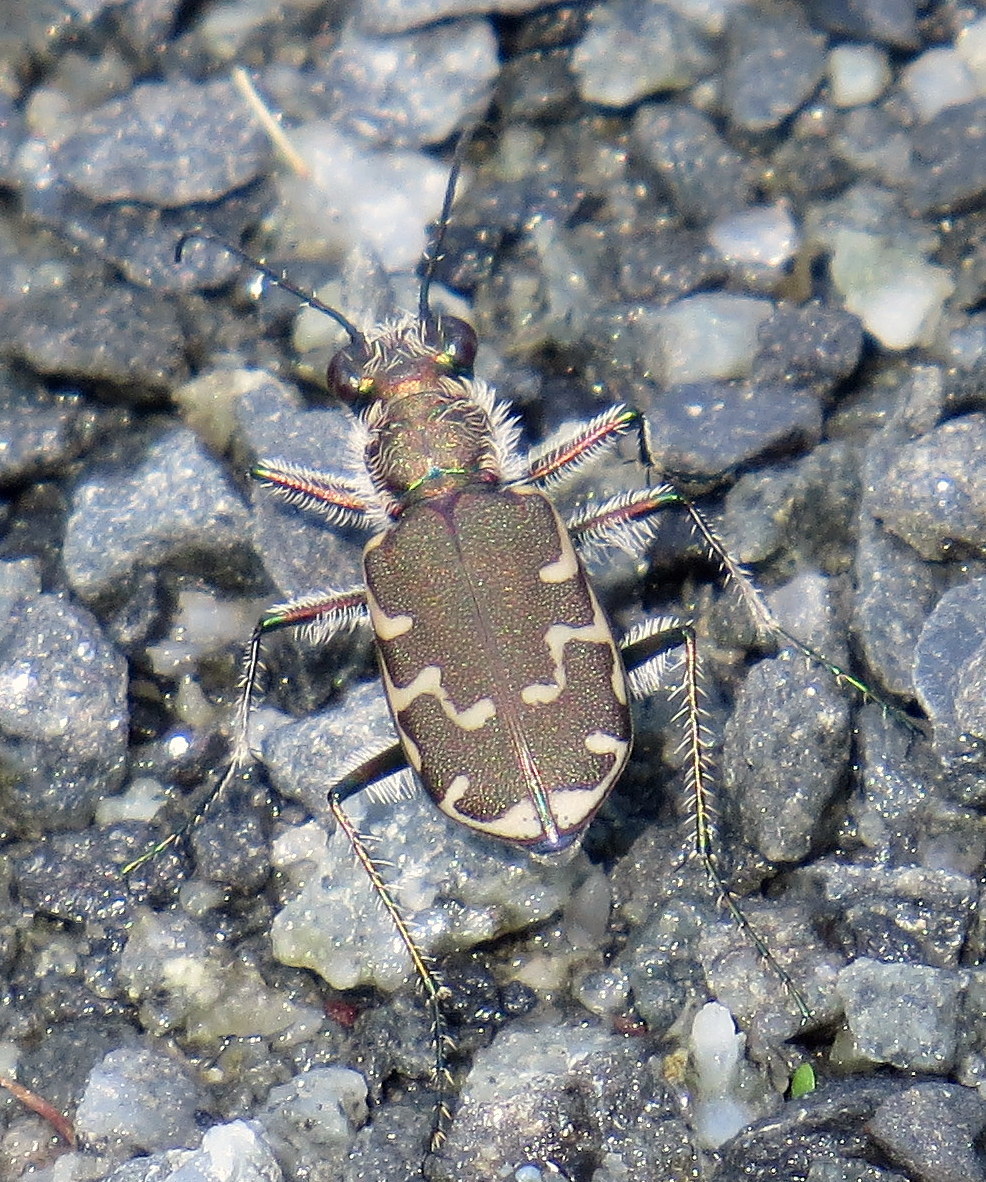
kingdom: Animalia
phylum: Arthropoda
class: Insecta
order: Coleoptera
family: Carabidae
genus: Cicindela
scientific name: Cicindela repanda
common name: Bronzed tiger beetle
